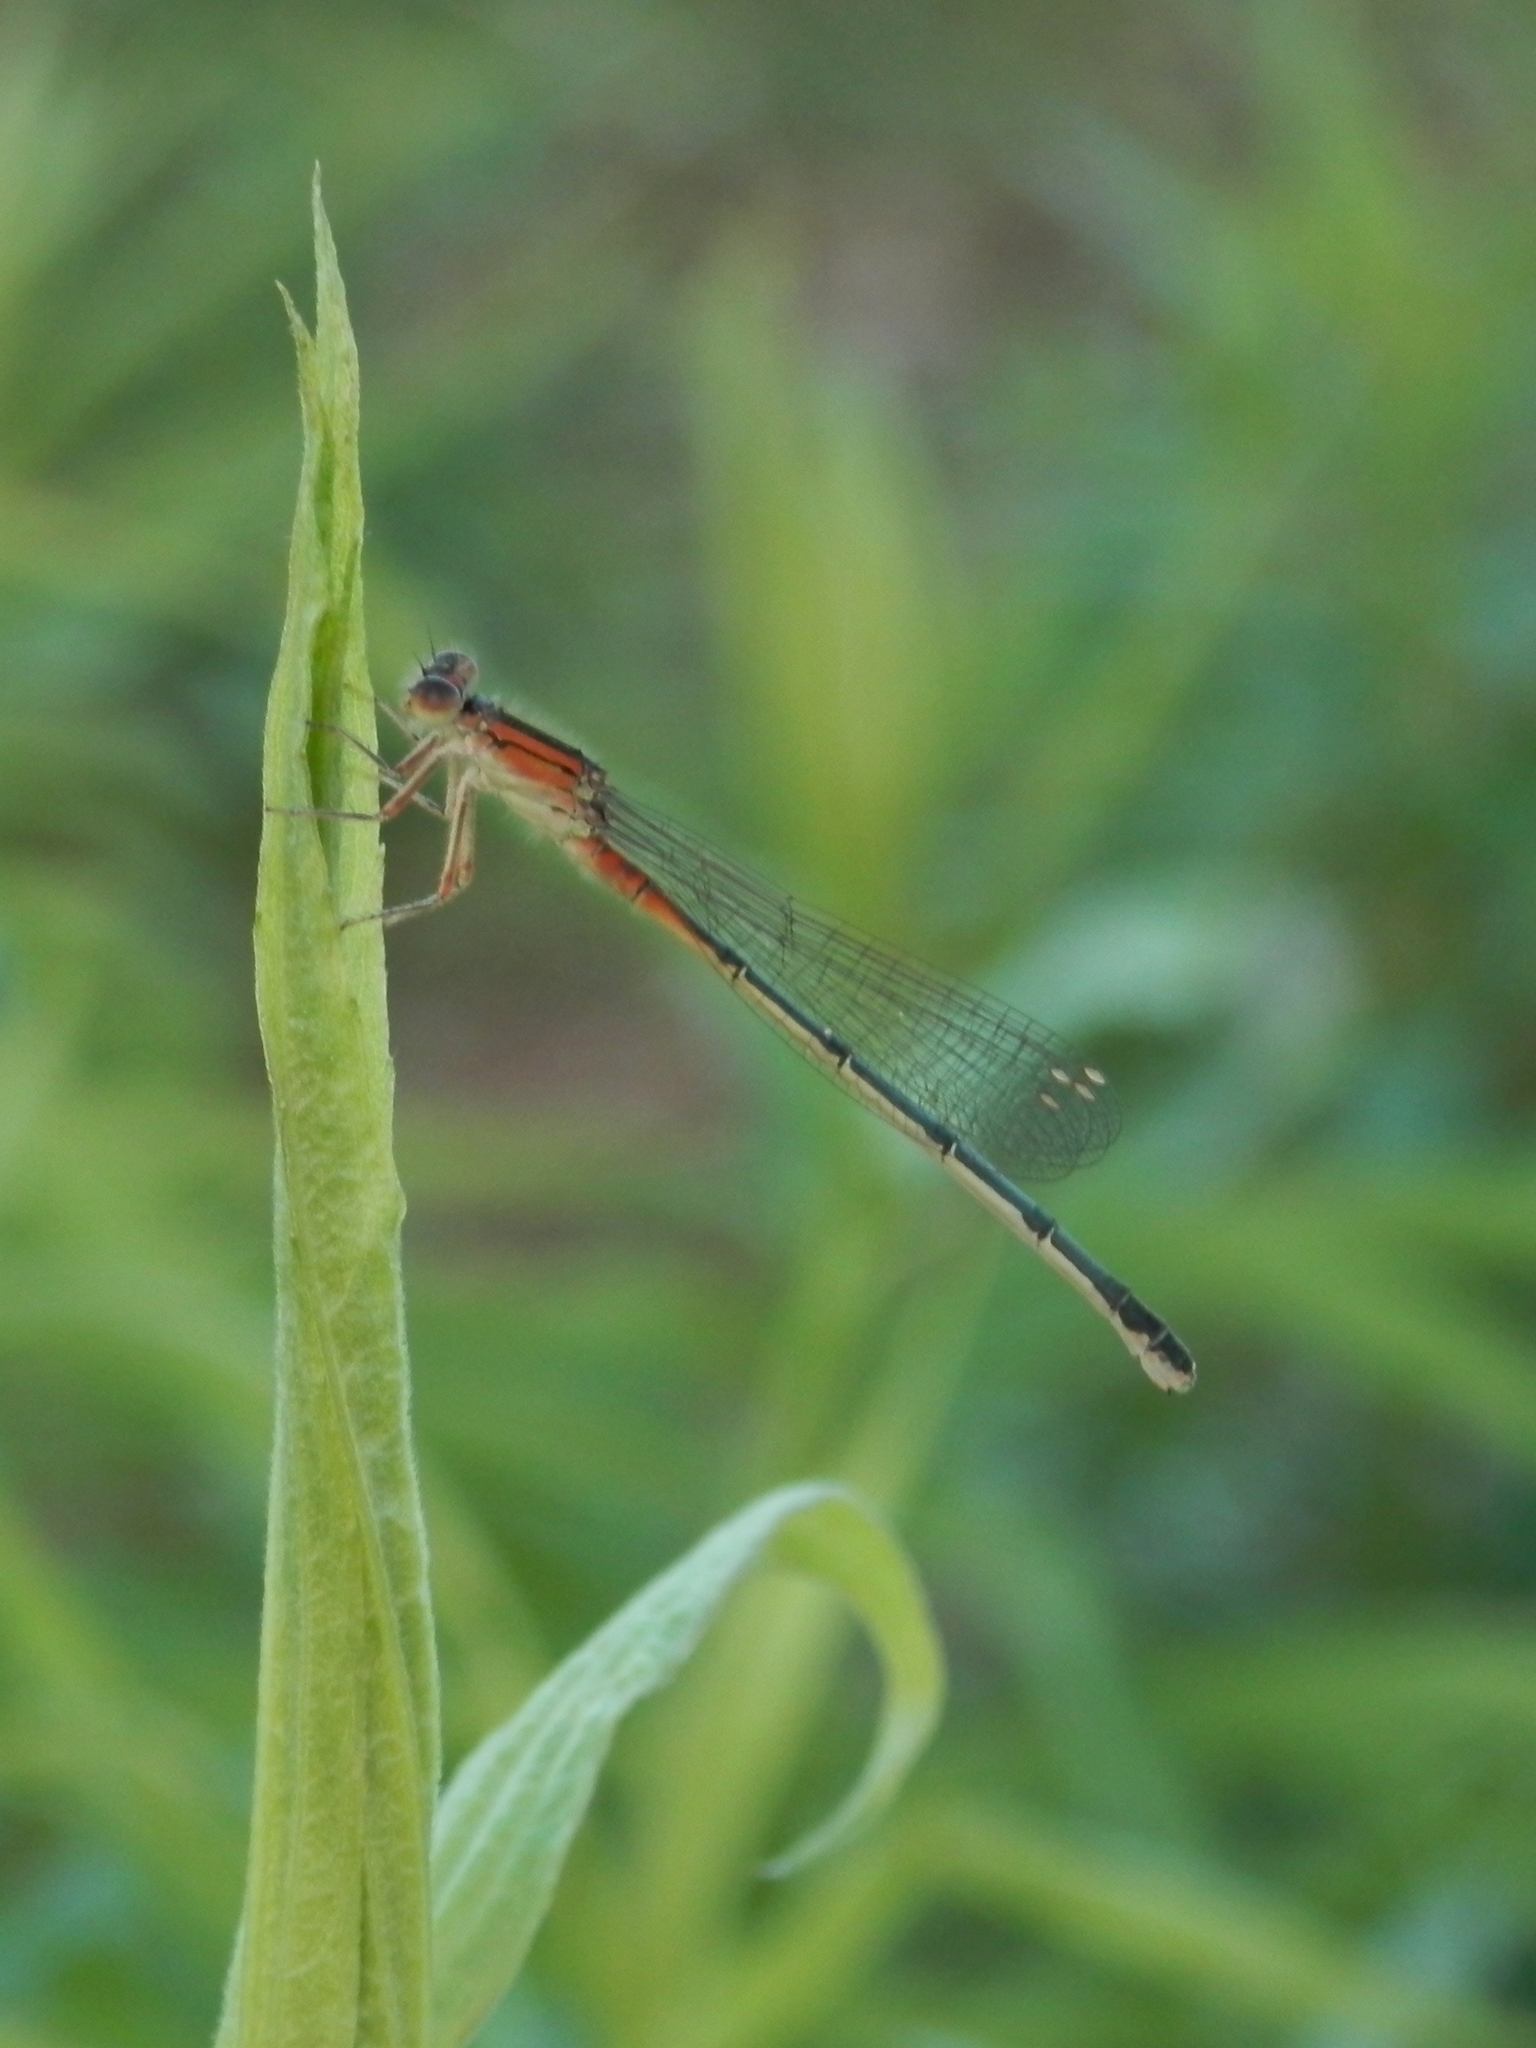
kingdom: Animalia
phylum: Arthropoda
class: Insecta
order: Odonata
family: Coenagrionidae
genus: Ischnura
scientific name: Ischnura verticalis
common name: Eastern forktail
